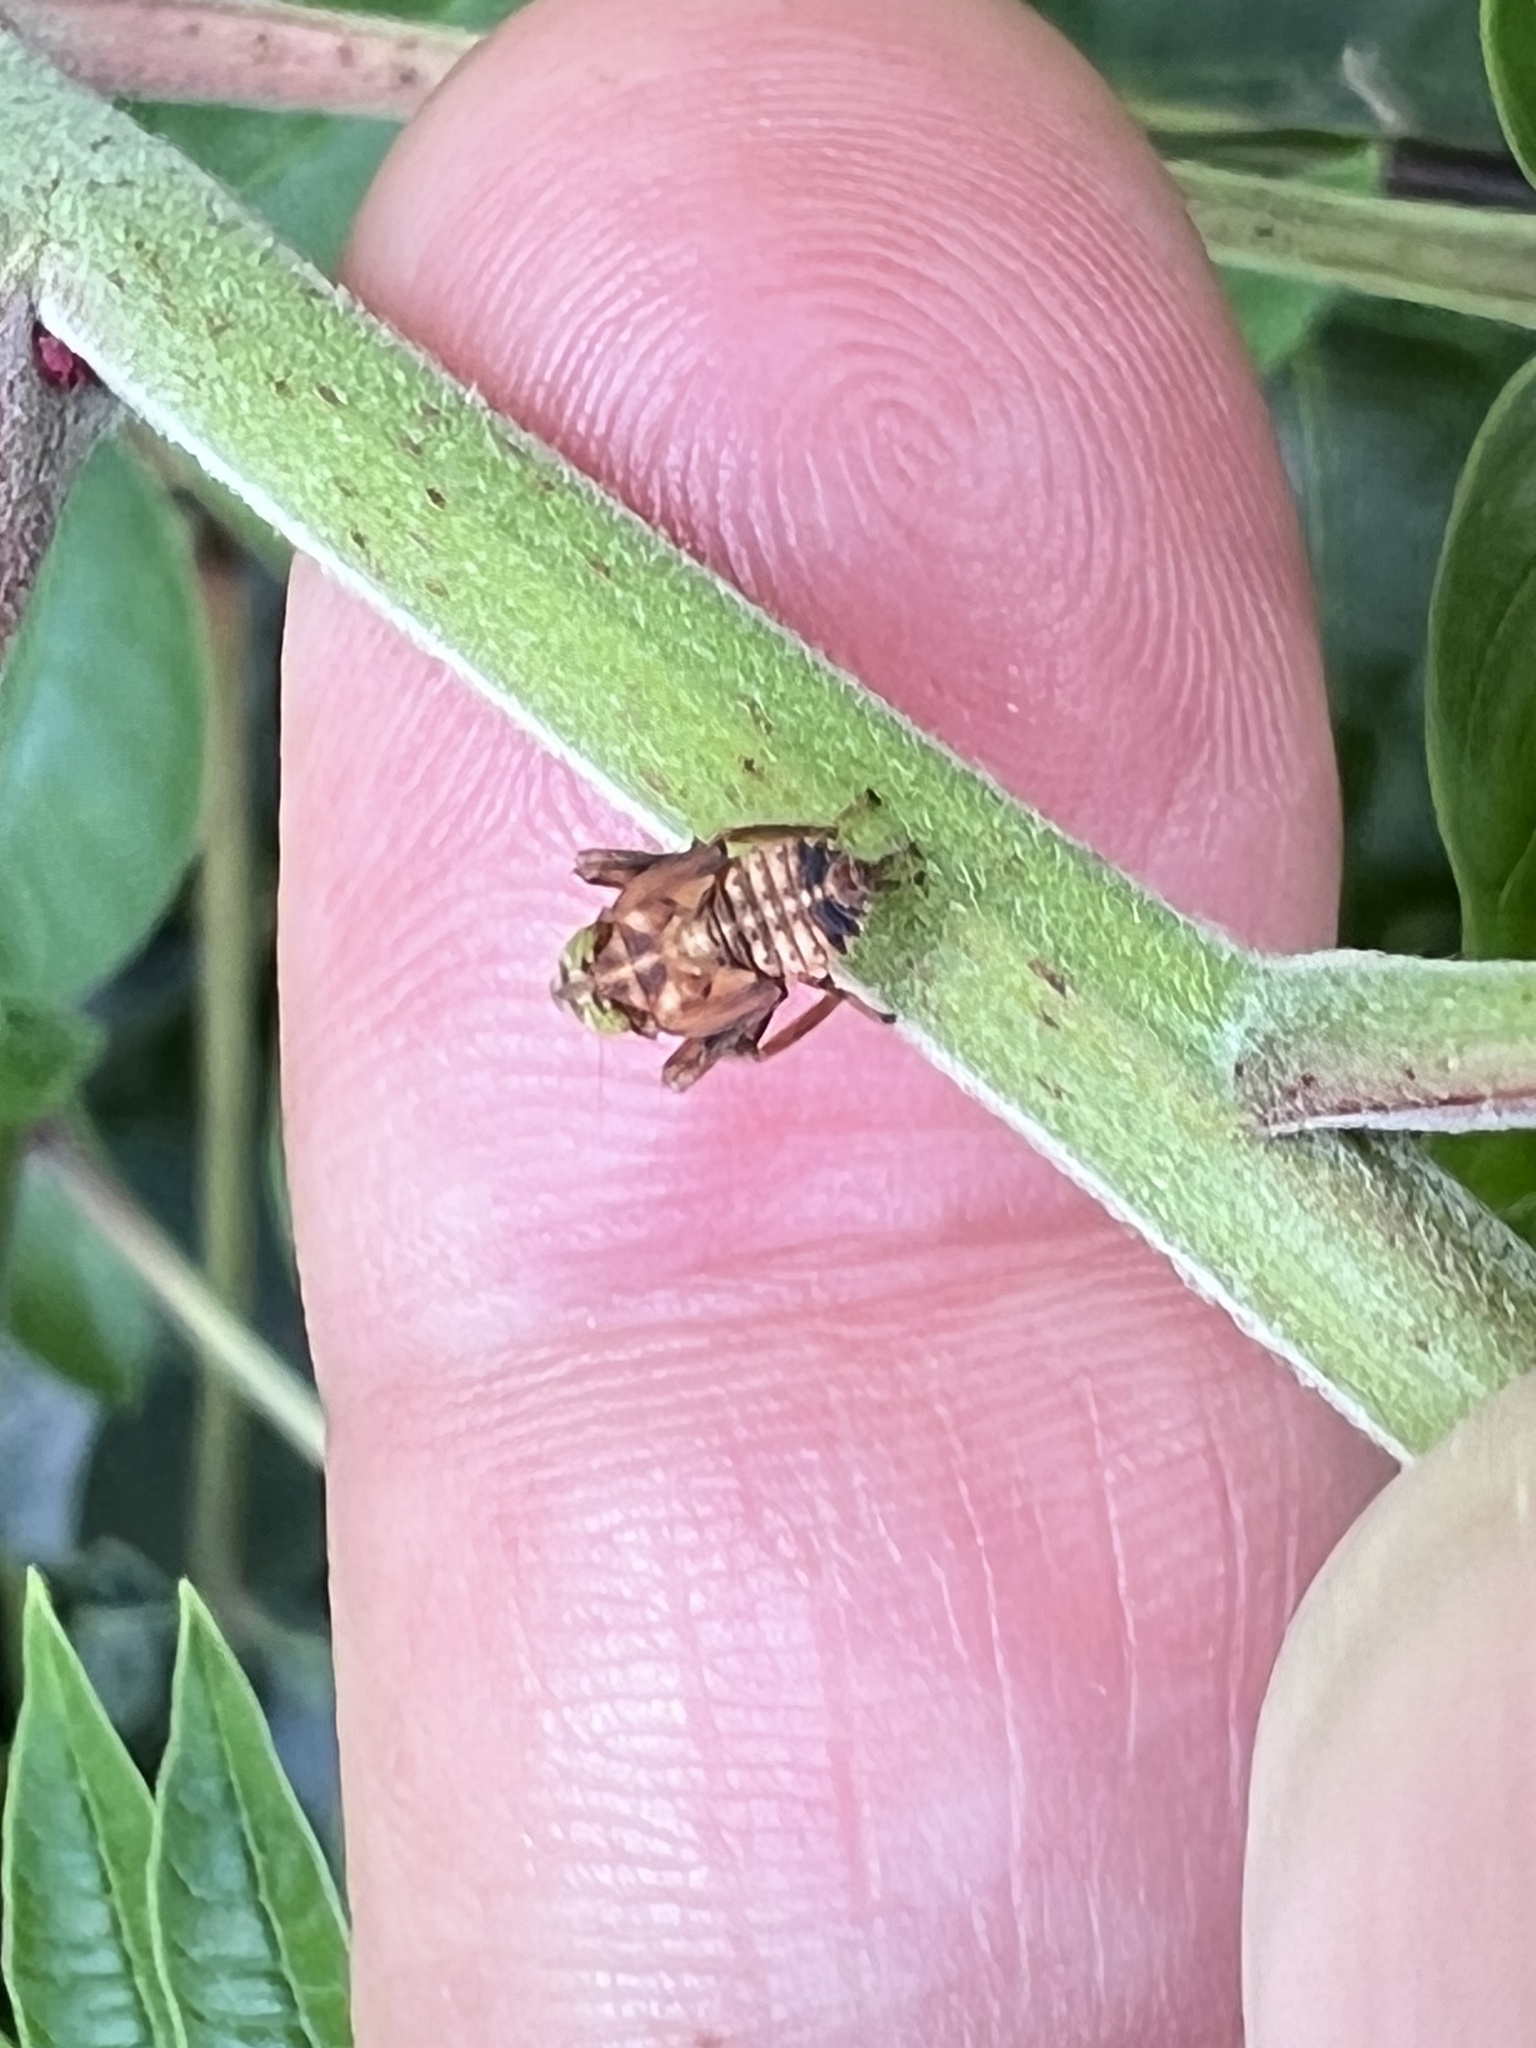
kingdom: Animalia
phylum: Arthropoda
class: Insecta
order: Hemiptera
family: Cicadellidae
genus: Jikradia
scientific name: Jikradia olitoria
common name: Coppery leafhopper
